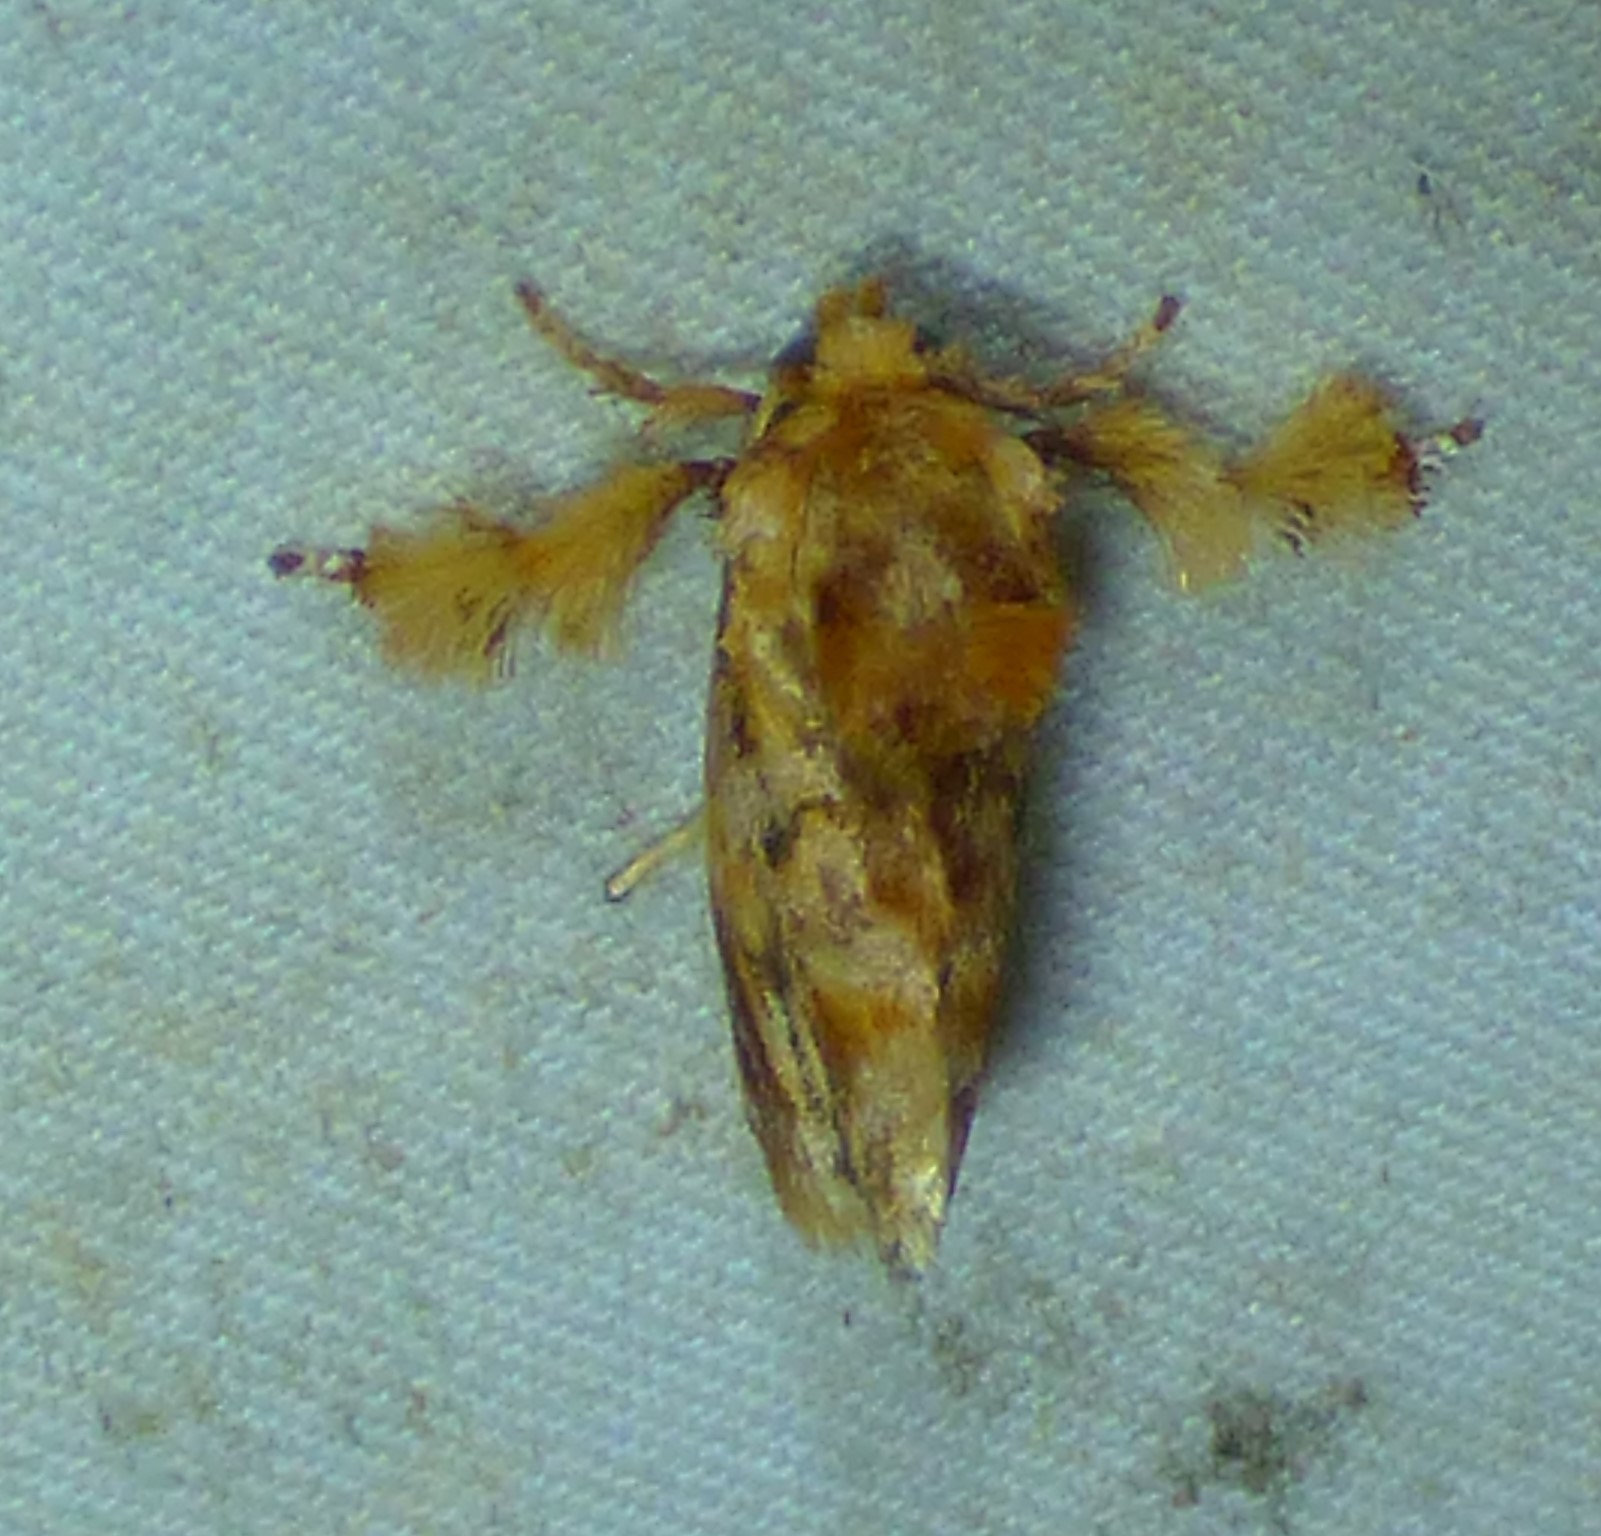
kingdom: Animalia
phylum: Arthropoda
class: Insecta
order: Lepidoptera
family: Limacodidae
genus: Isochaetes
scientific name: Isochaetes beutenmuelleri
